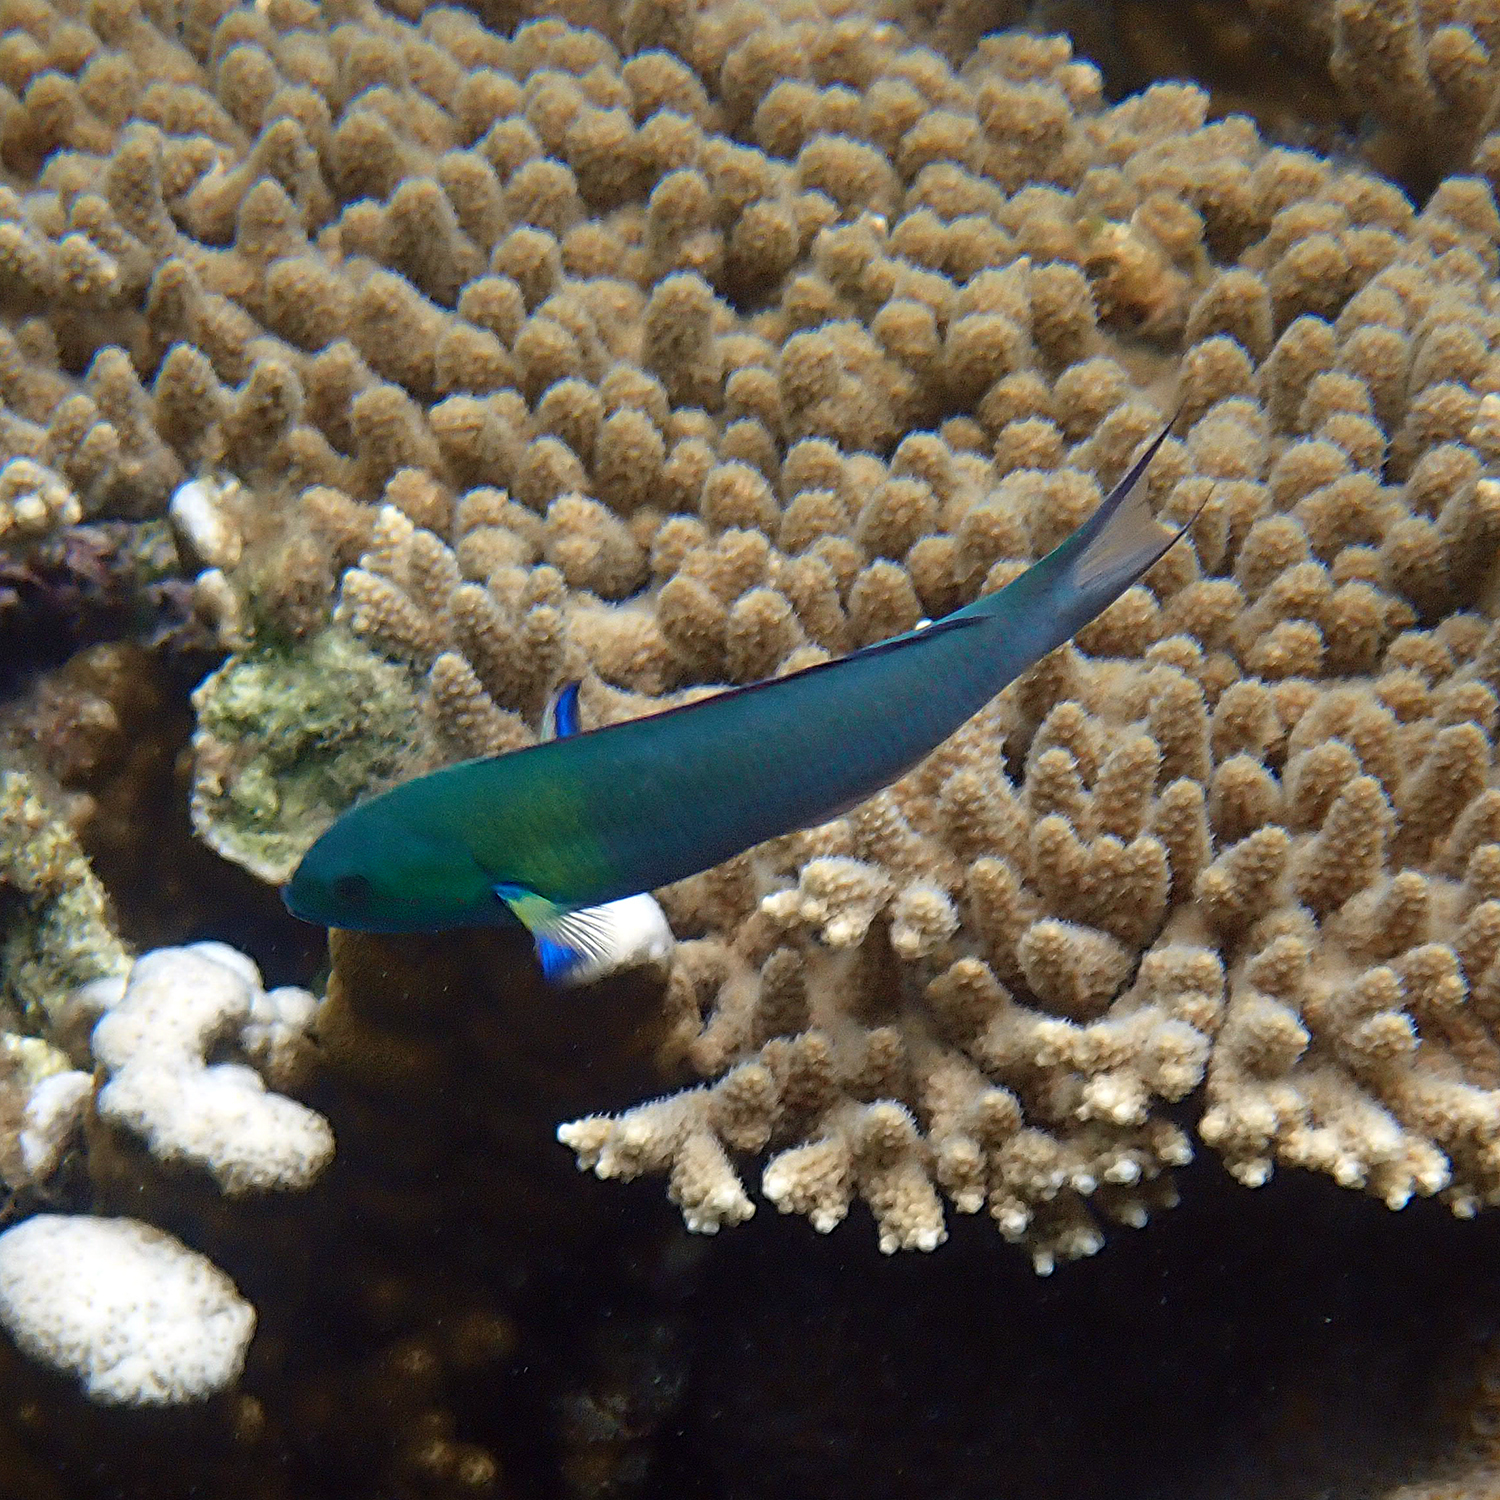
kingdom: Animalia
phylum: Chordata
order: Perciformes
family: Labridae
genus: Thalassoma
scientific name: Thalassoma amblycephalum
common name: Bluehead wrasse
